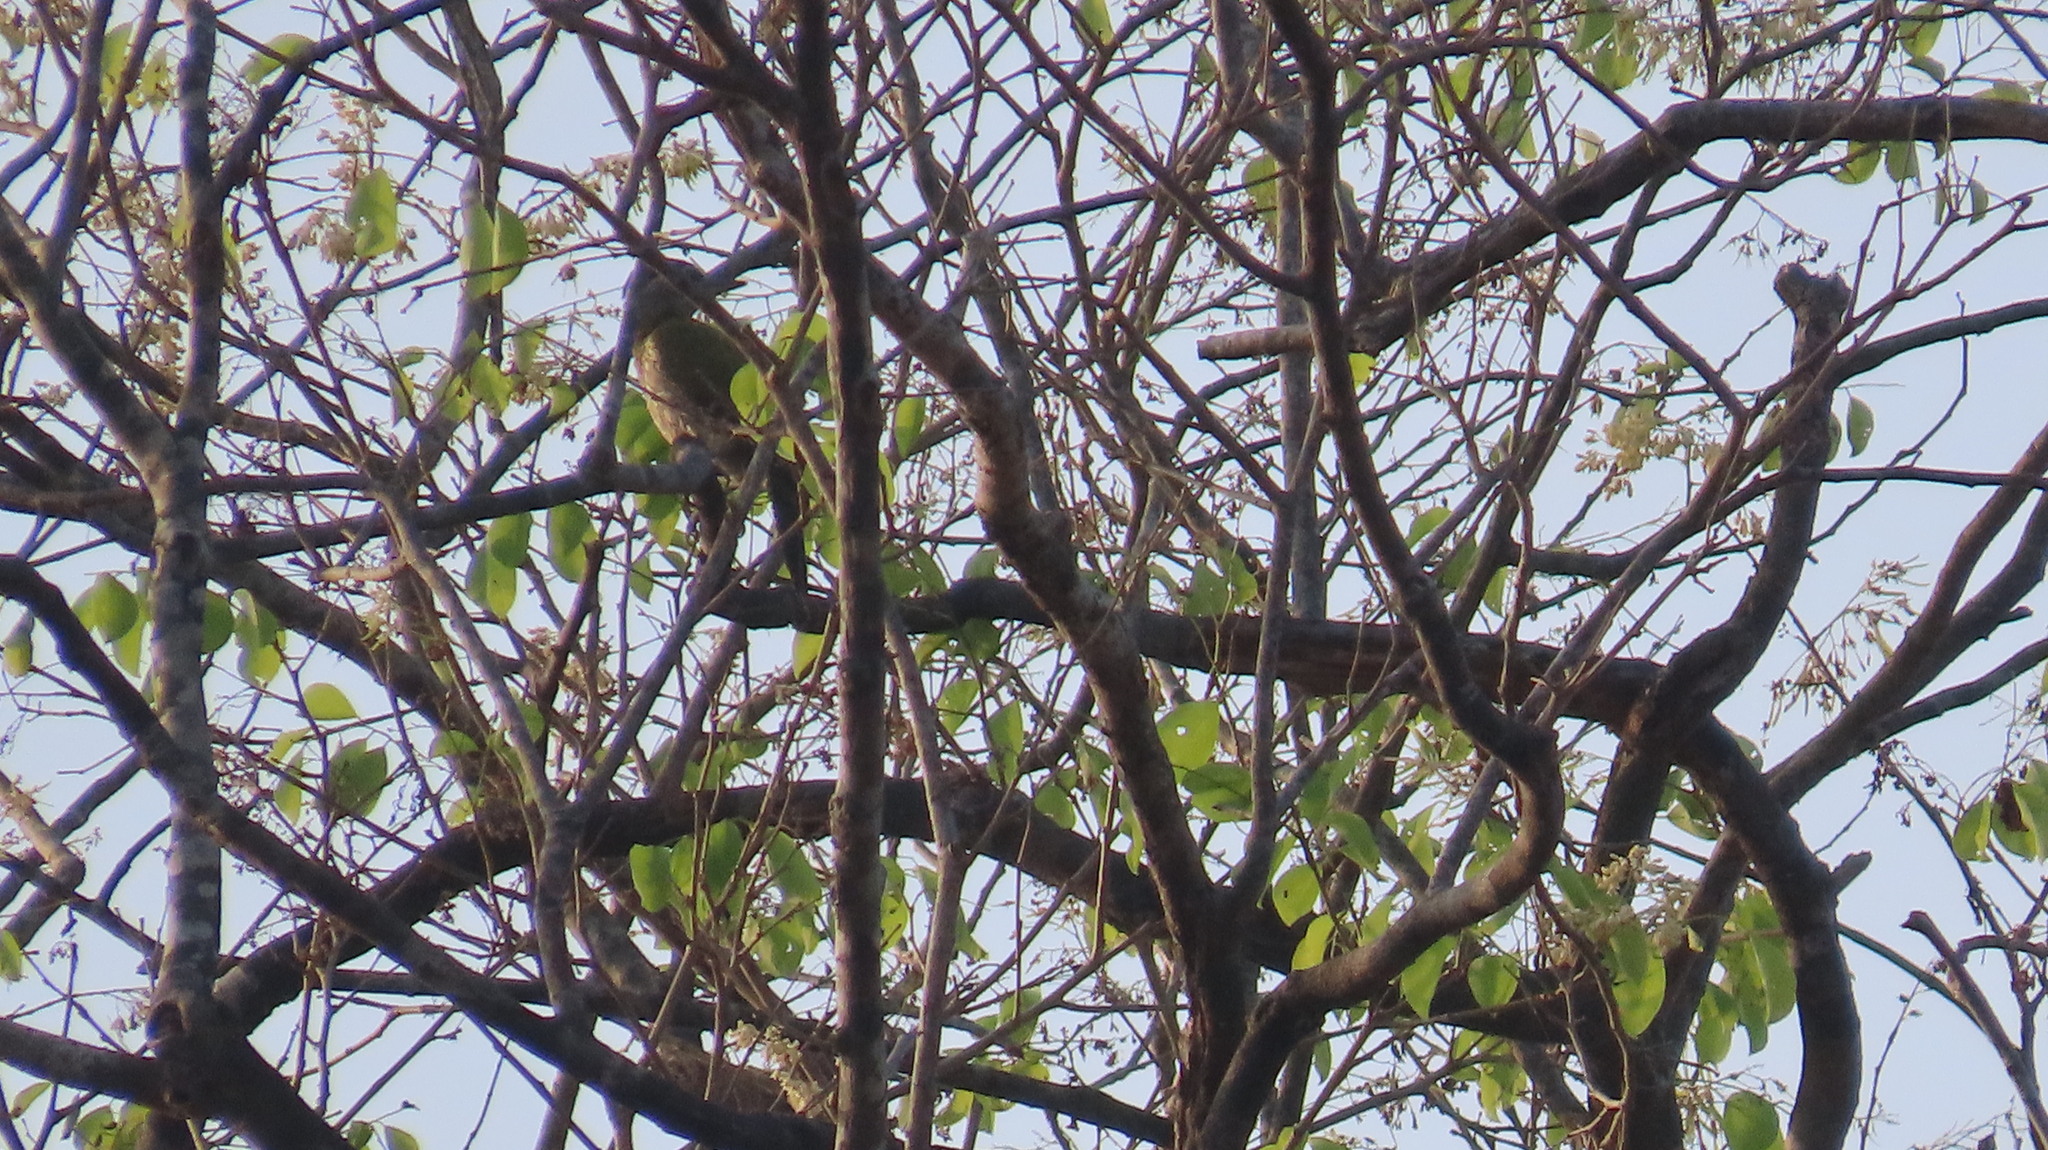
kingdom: Animalia
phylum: Chordata
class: Aves
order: Piciformes
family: Picidae
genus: Picus
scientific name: Picus xanthopygaeus
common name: Streak-throated woodpecker
